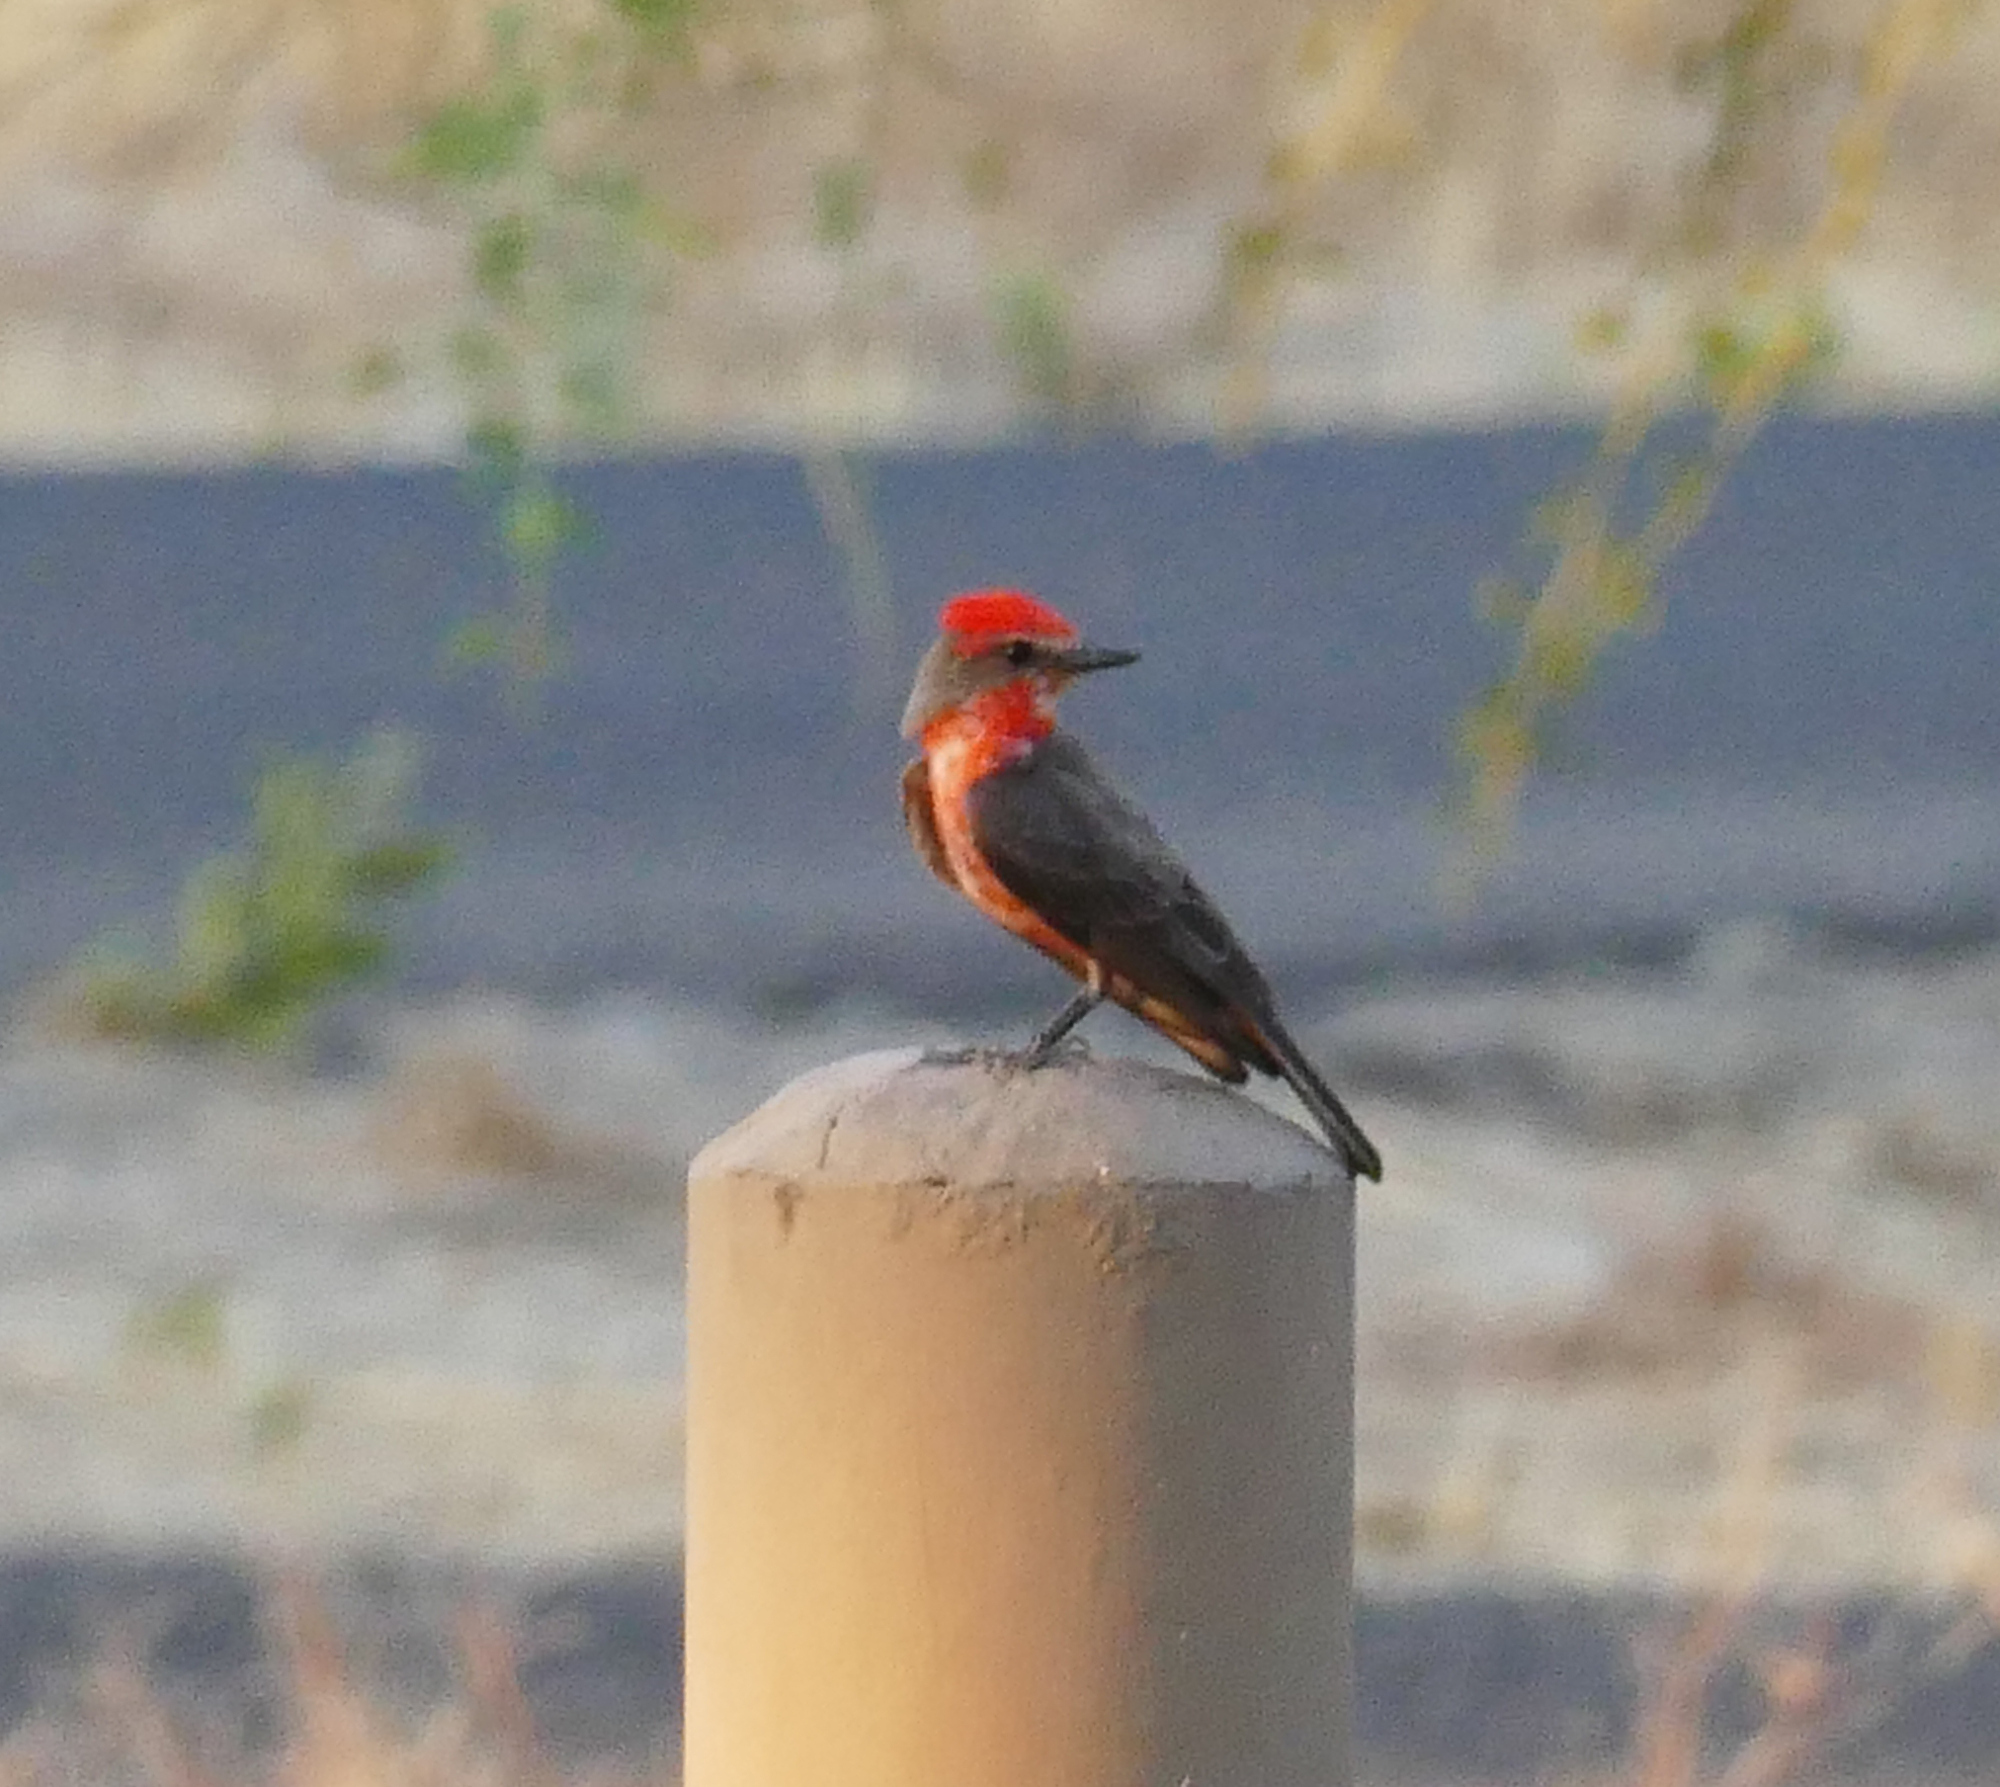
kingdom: Animalia
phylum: Chordata
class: Aves
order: Passeriformes
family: Tyrannidae
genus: Pyrocephalus
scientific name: Pyrocephalus rubinus
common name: Vermilion flycatcher
